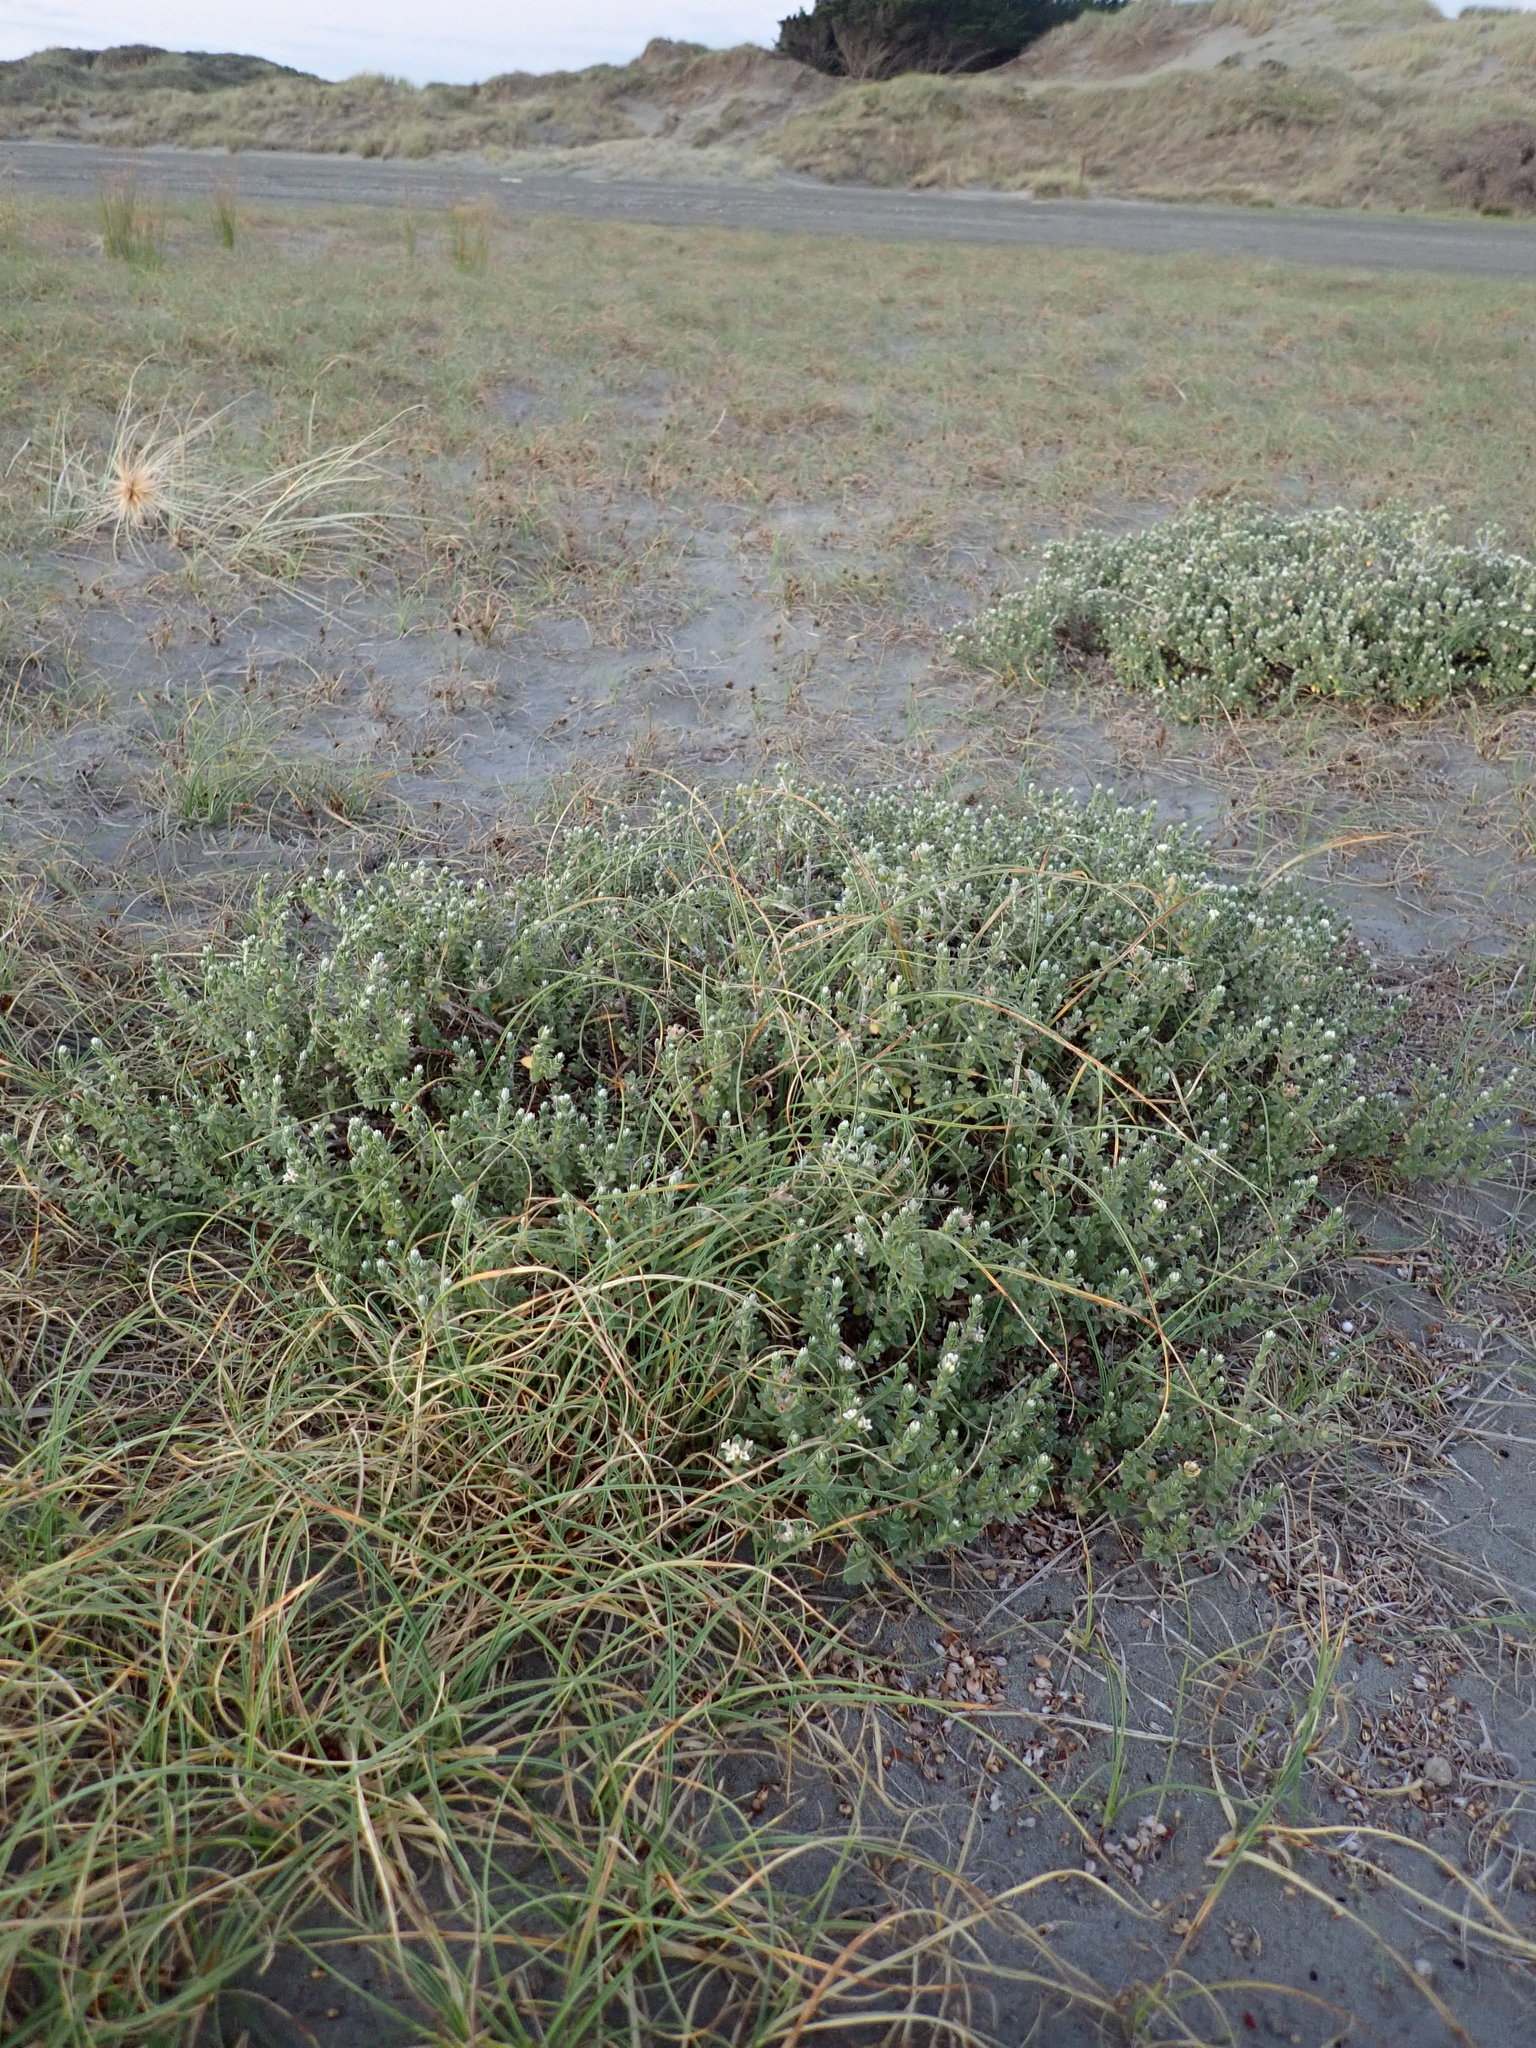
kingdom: Plantae
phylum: Tracheophyta
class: Magnoliopsida
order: Malvales
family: Thymelaeaceae
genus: Pimelea
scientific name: Pimelea villosa
